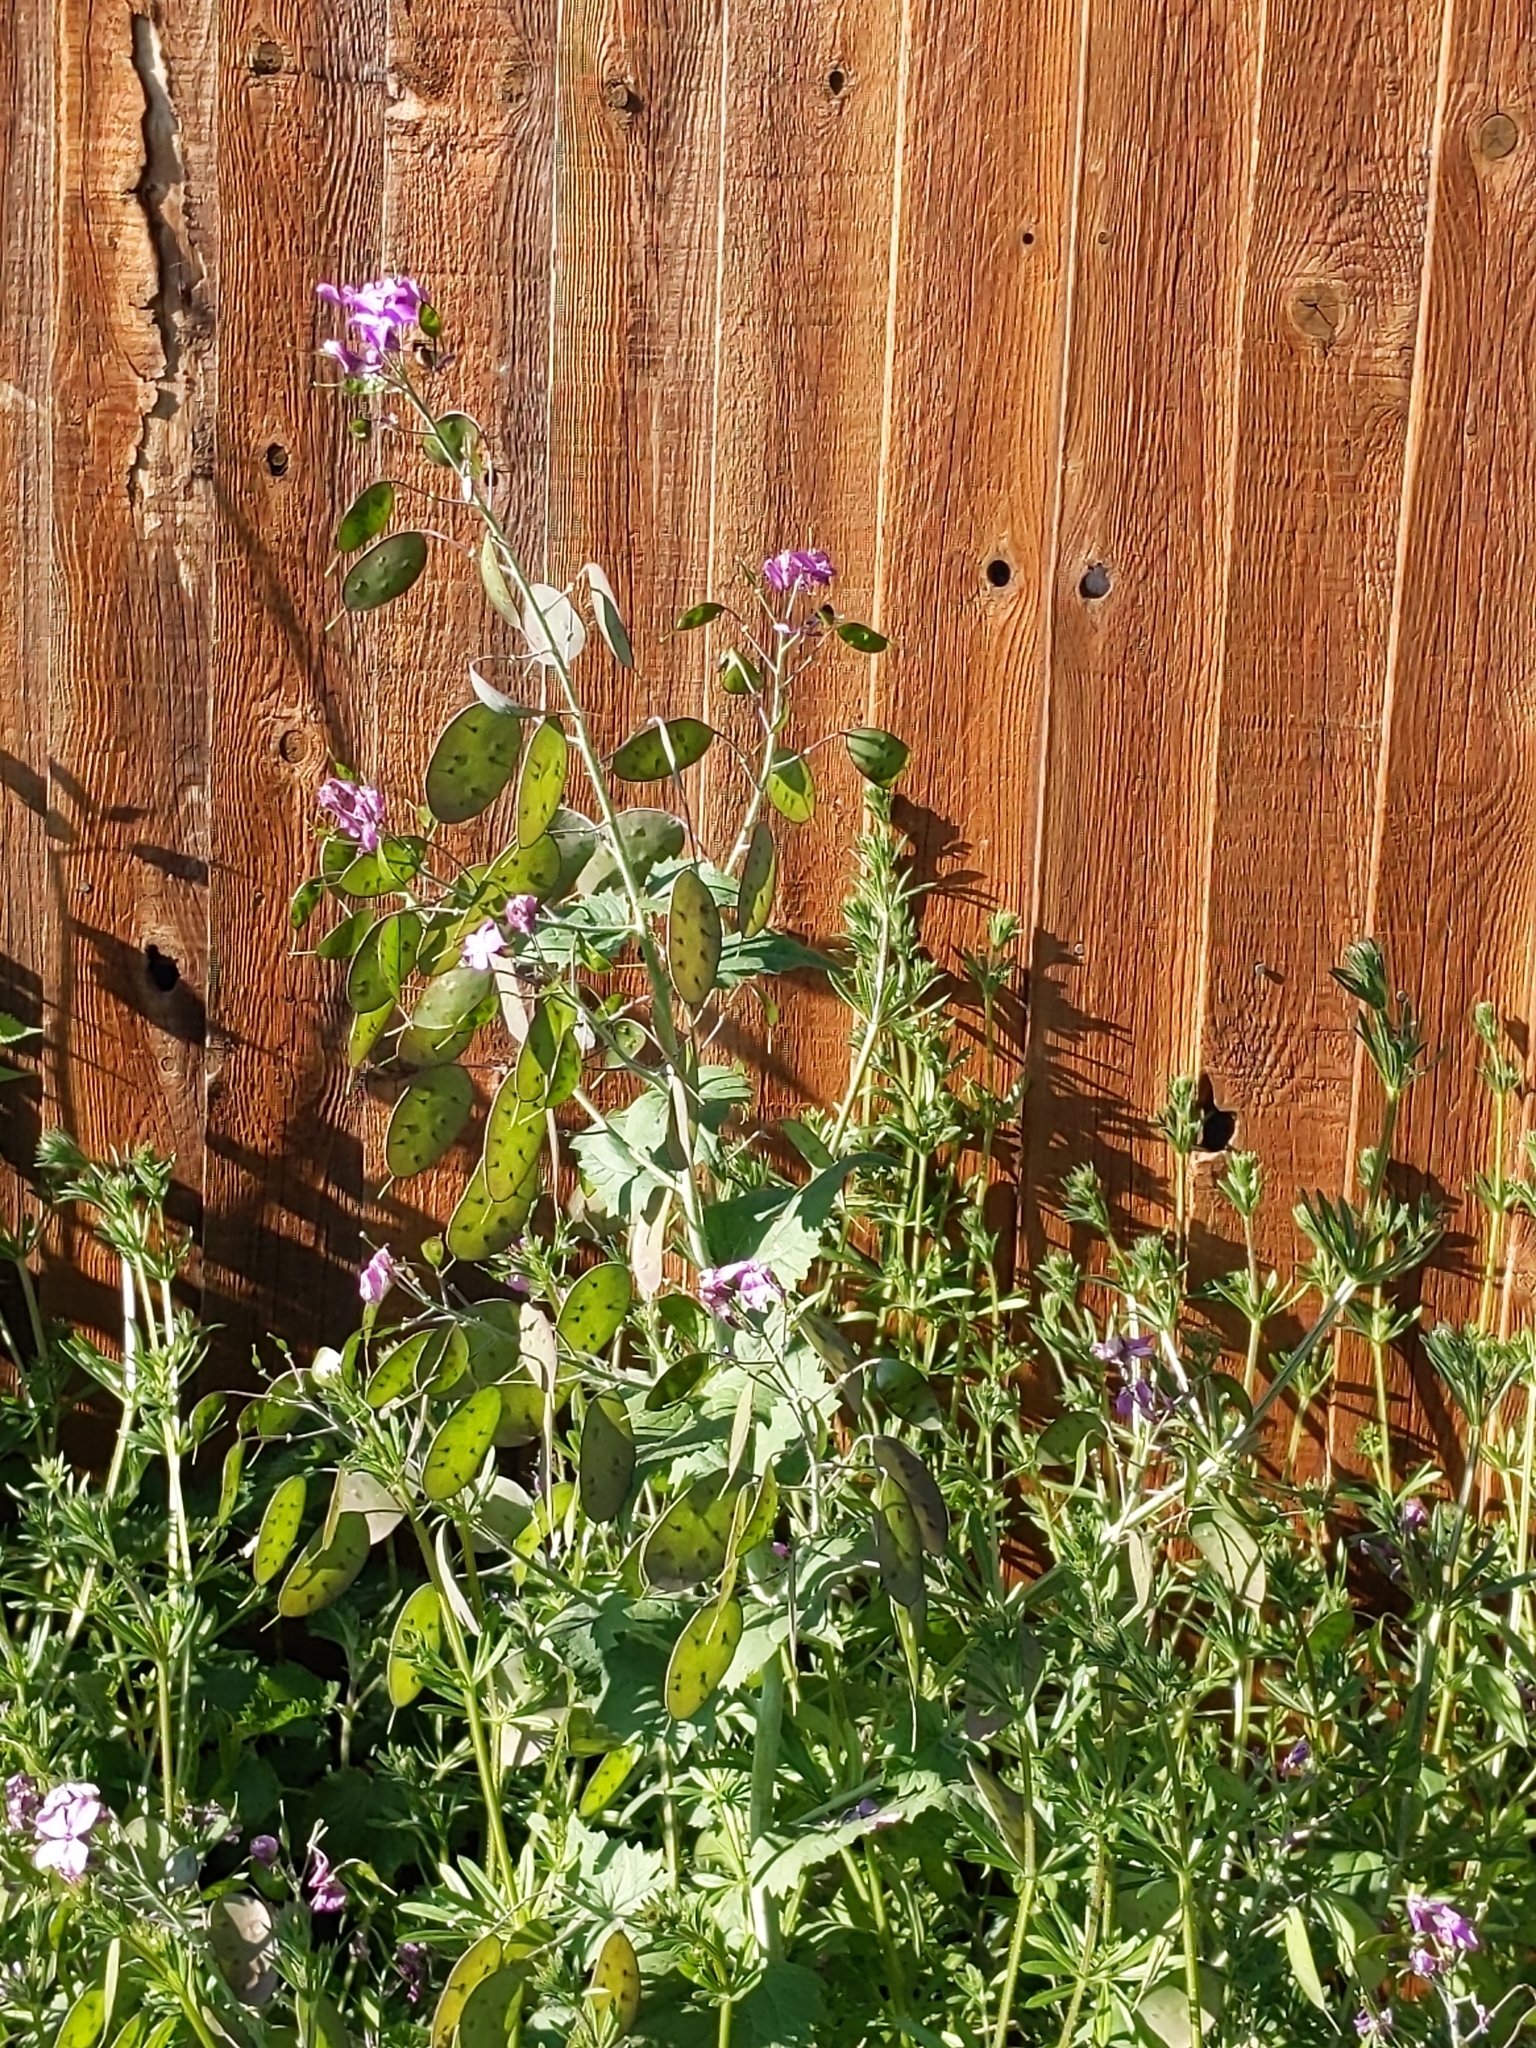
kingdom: Plantae
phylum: Tracheophyta
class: Magnoliopsida
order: Brassicales
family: Brassicaceae
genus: Lunaria
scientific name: Lunaria annua
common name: Honesty
